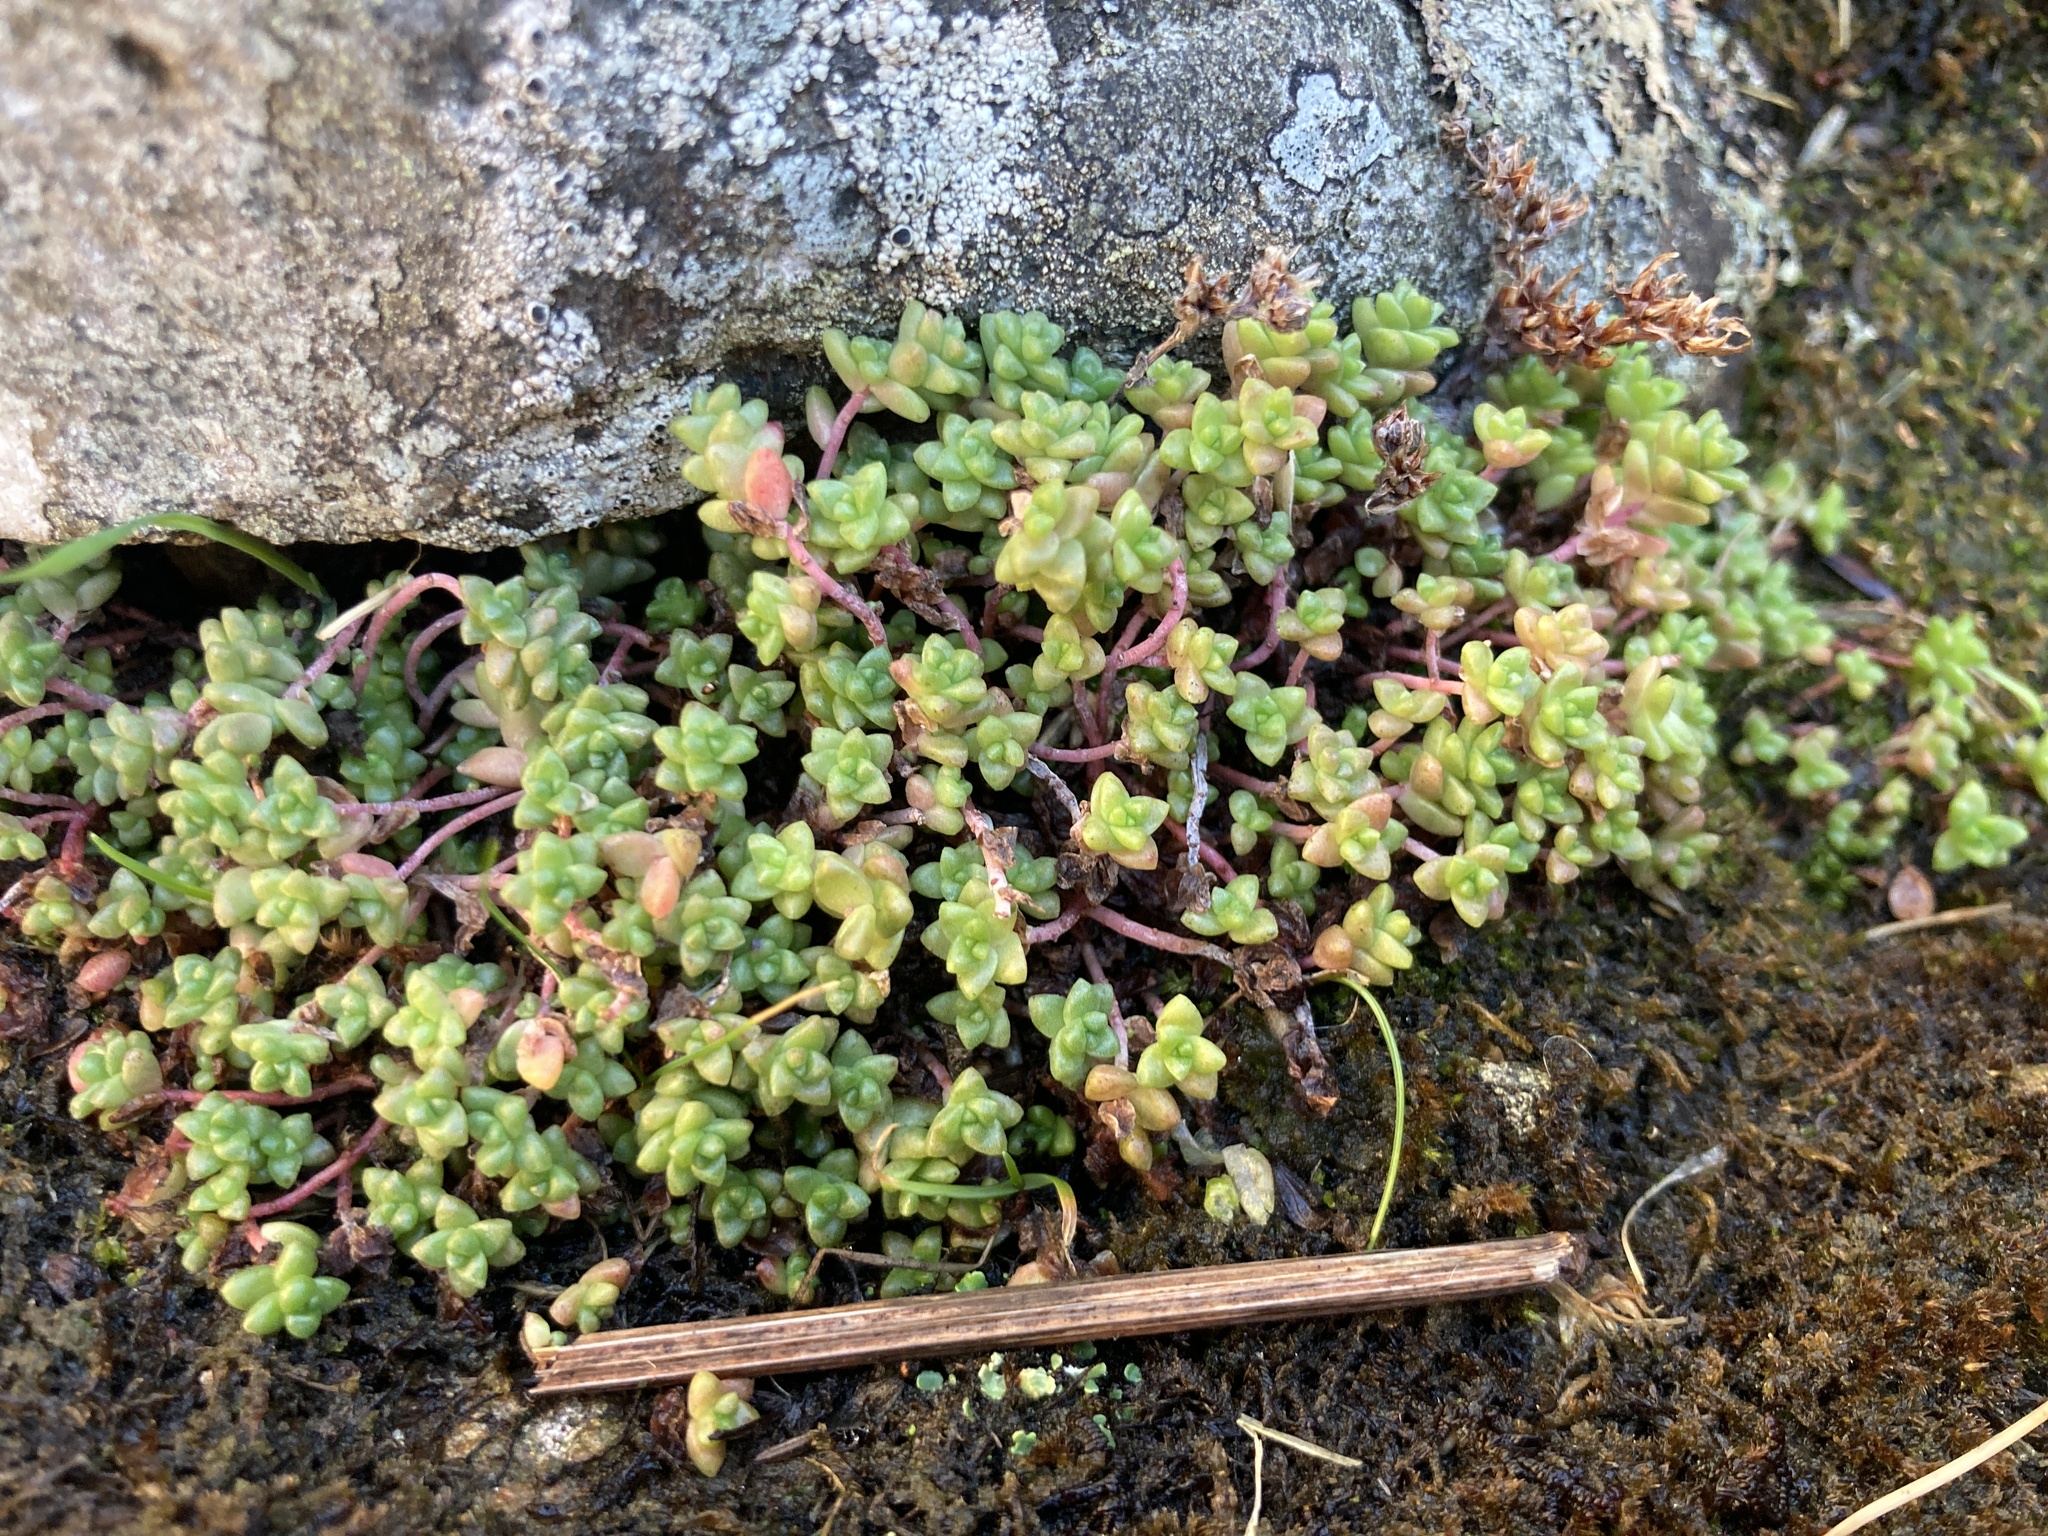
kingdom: Plantae
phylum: Tracheophyta
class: Magnoliopsida
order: Saxifragales
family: Crassulaceae
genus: Sedum
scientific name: Sedum anglicum
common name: English stonecrop
